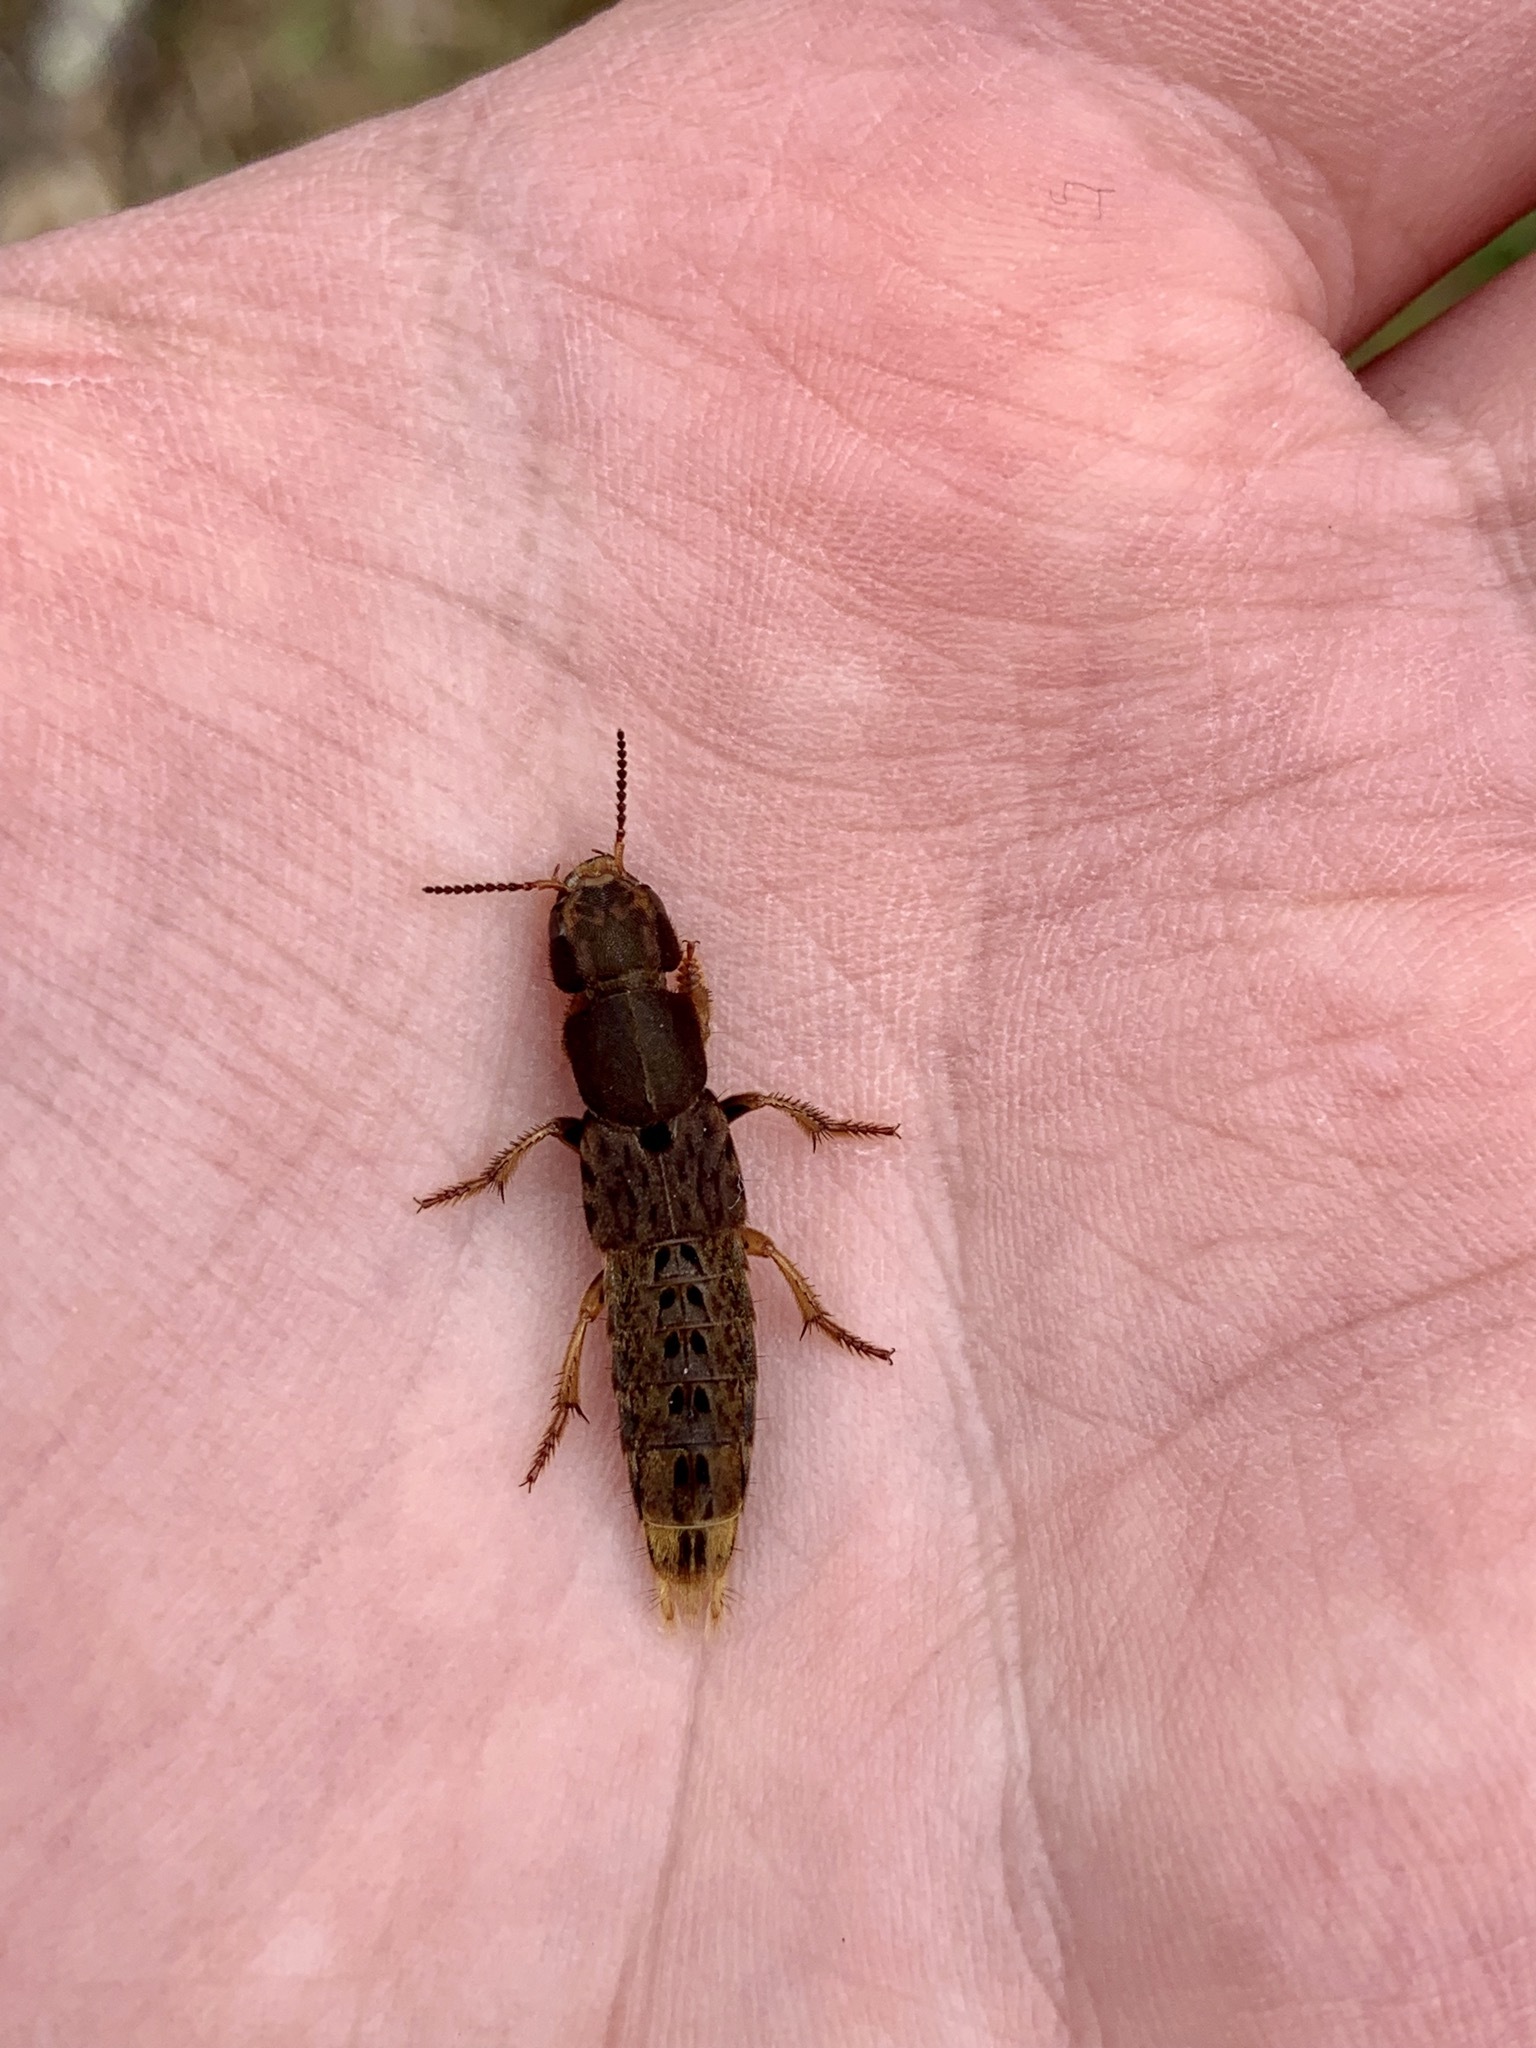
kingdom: Animalia
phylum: Arthropoda
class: Insecta
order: Coleoptera
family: Staphylinidae
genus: Platydracus
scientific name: Platydracus maculosus
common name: Brown rove beetle
